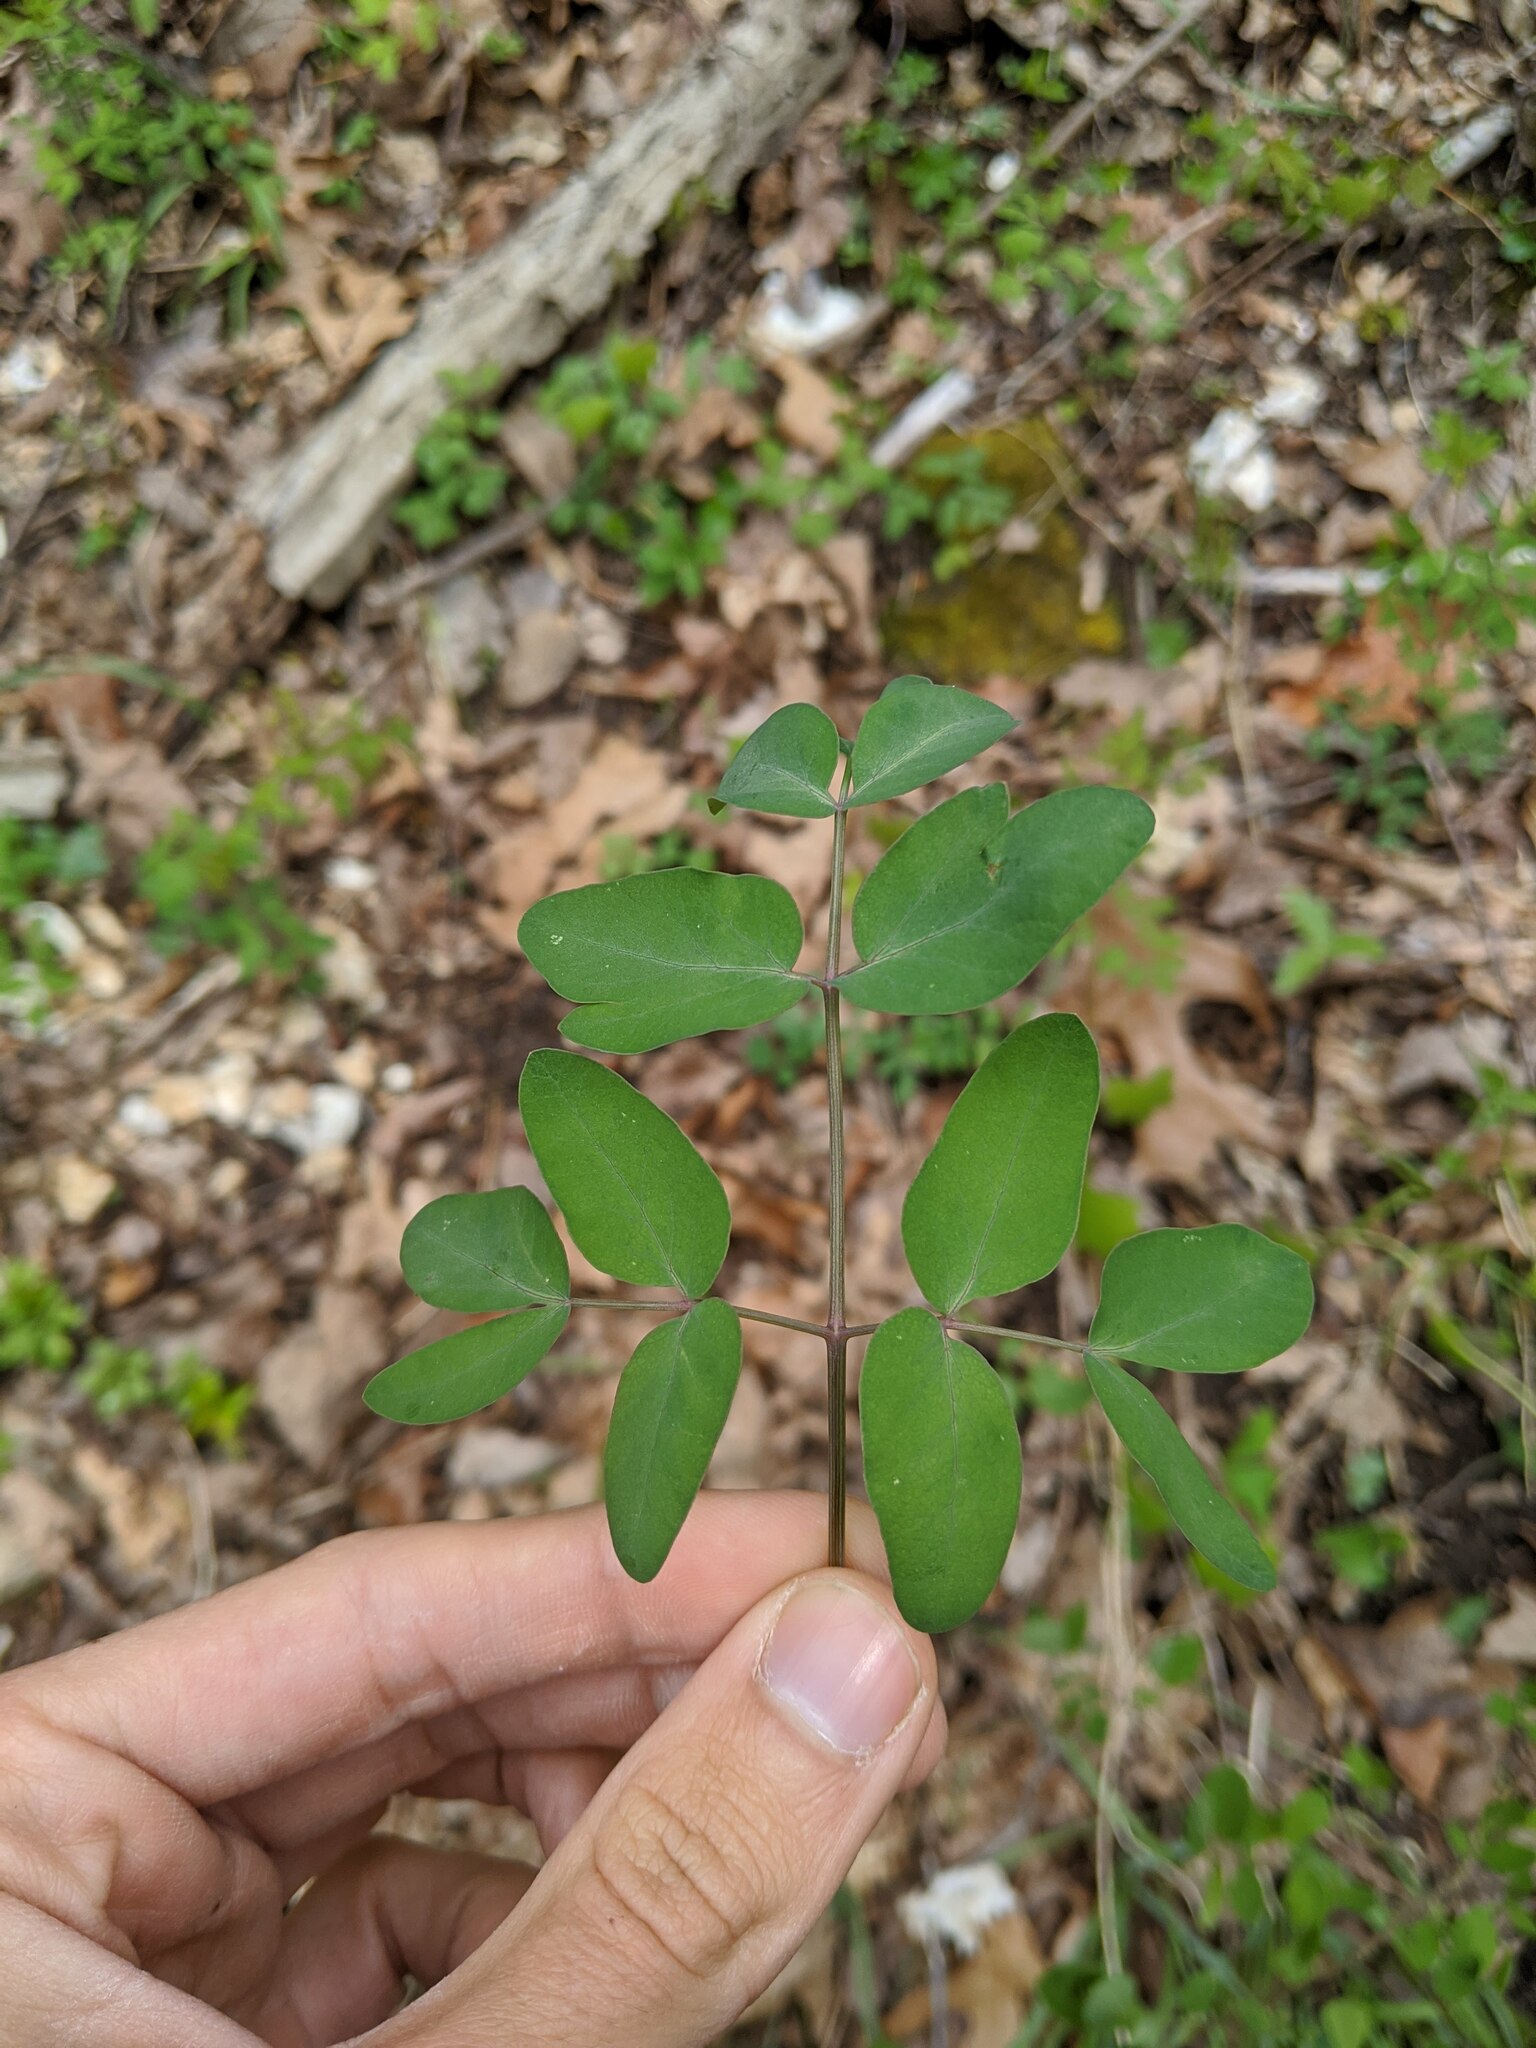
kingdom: Plantae
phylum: Tracheophyta
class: Magnoliopsida
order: Apiales
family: Apiaceae
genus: Taenidia
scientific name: Taenidia integerrima
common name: Golden alexander
